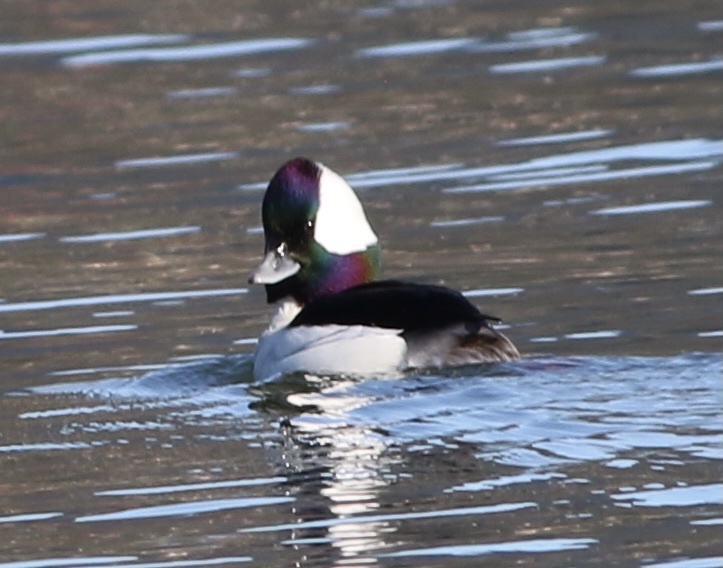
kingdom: Animalia
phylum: Chordata
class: Aves
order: Anseriformes
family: Anatidae
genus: Bucephala
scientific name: Bucephala albeola
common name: Bufflehead
